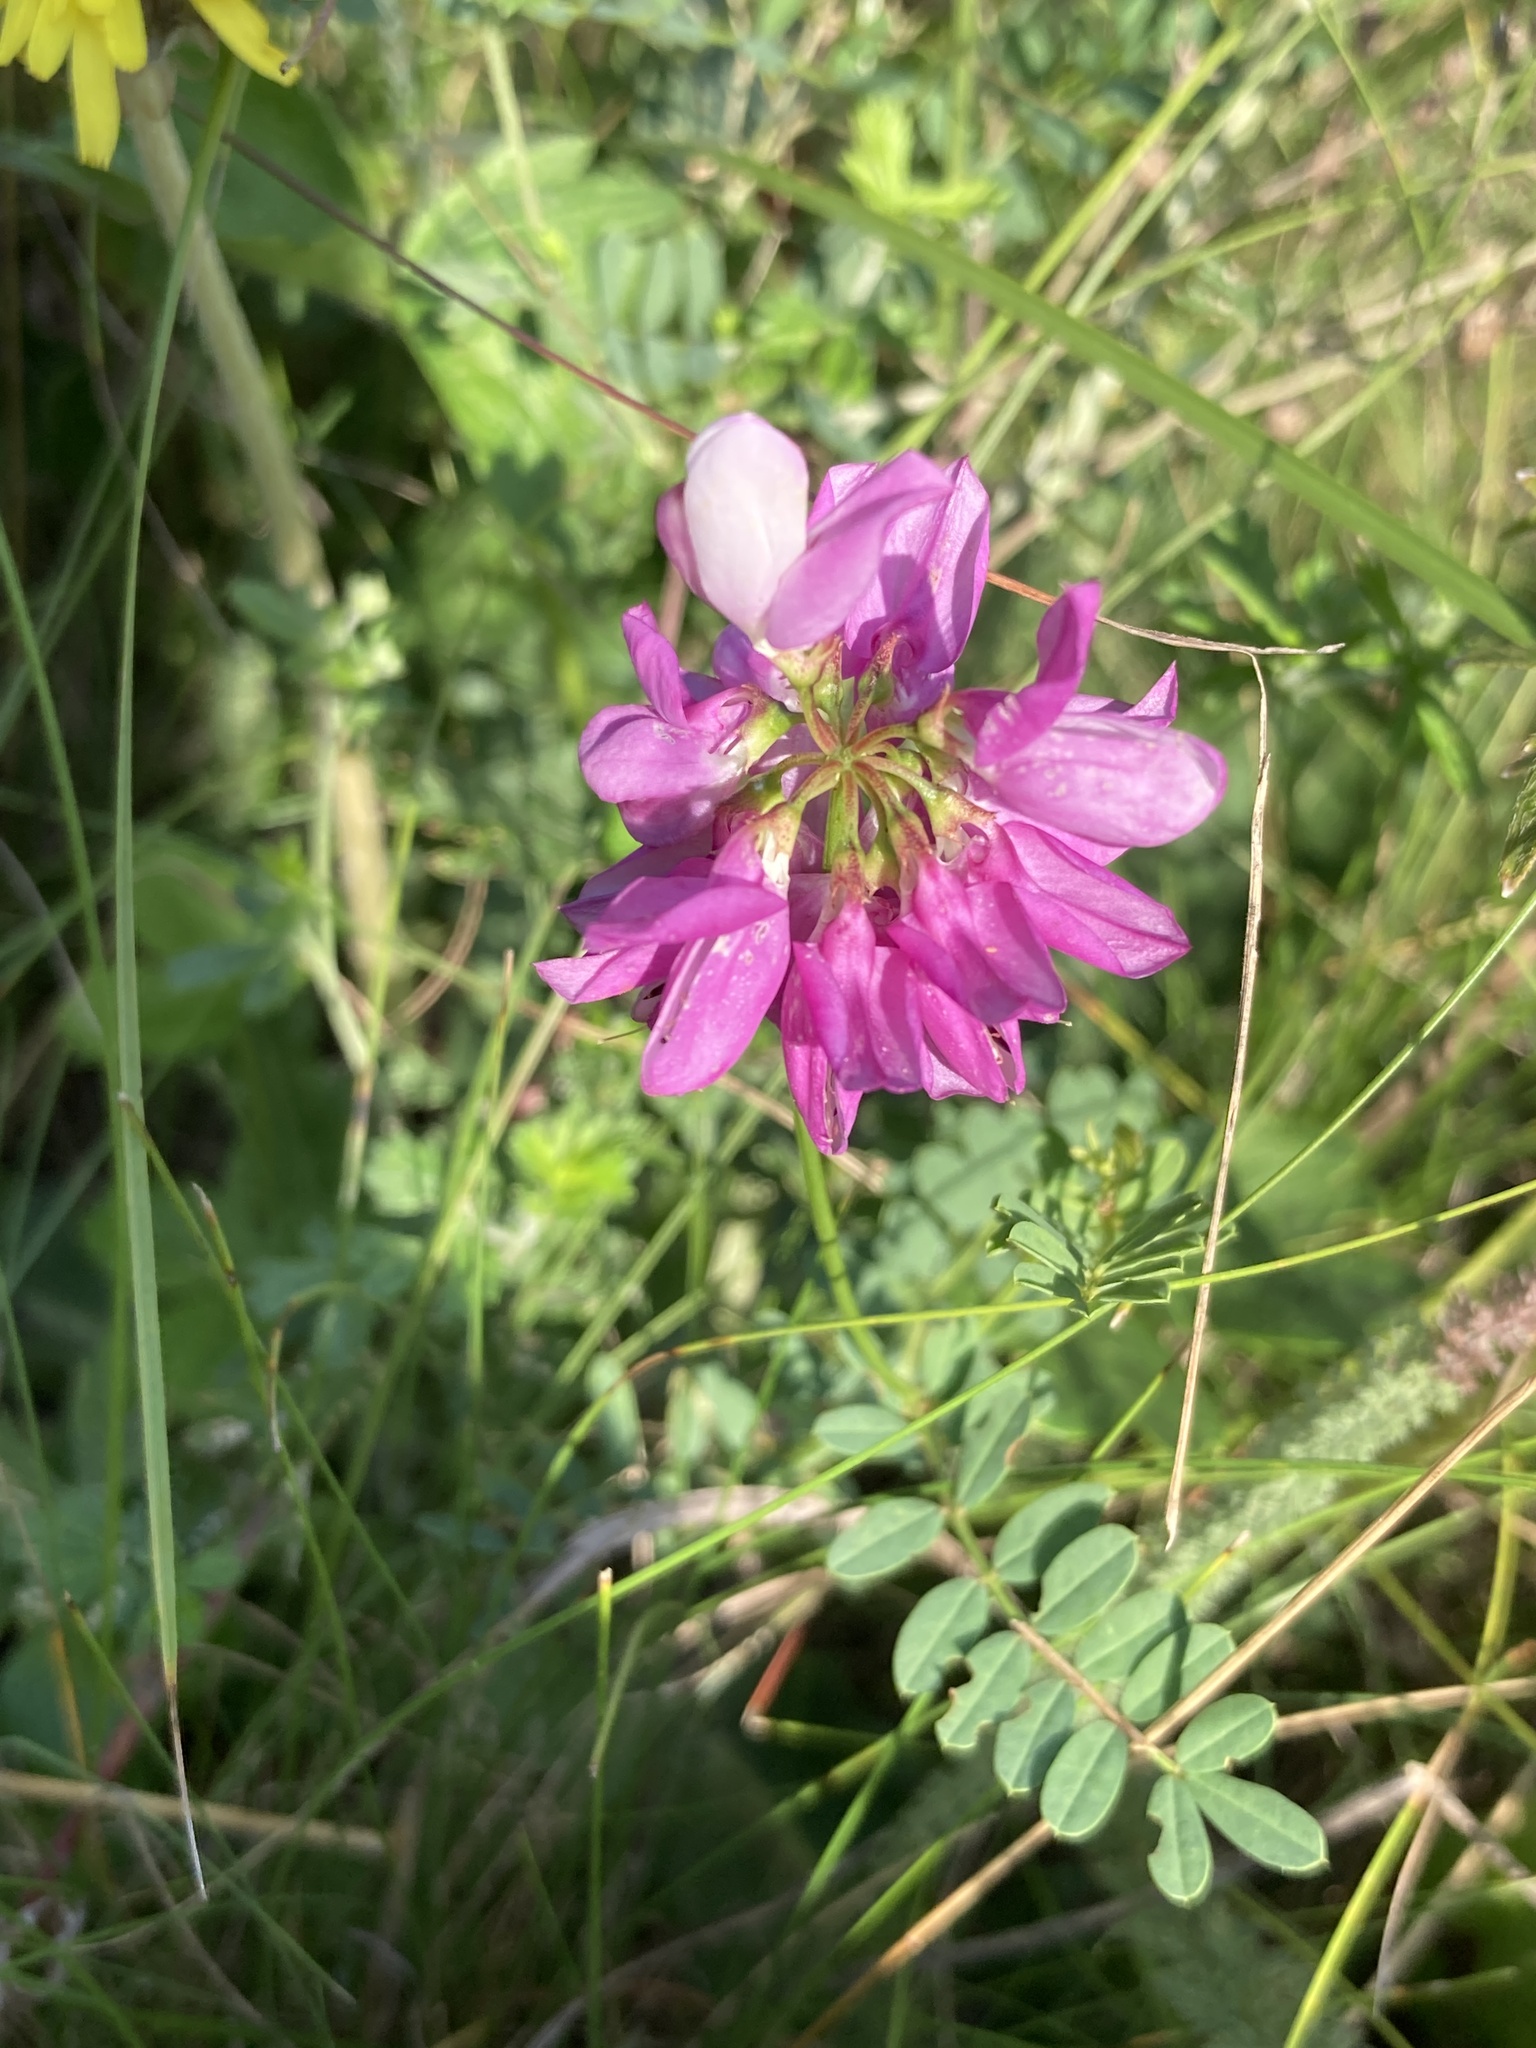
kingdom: Plantae
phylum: Tracheophyta
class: Magnoliopsida
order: Fabales
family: Fabaceae
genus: Coronilla
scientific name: Coronilla varia
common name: Crownvetch
